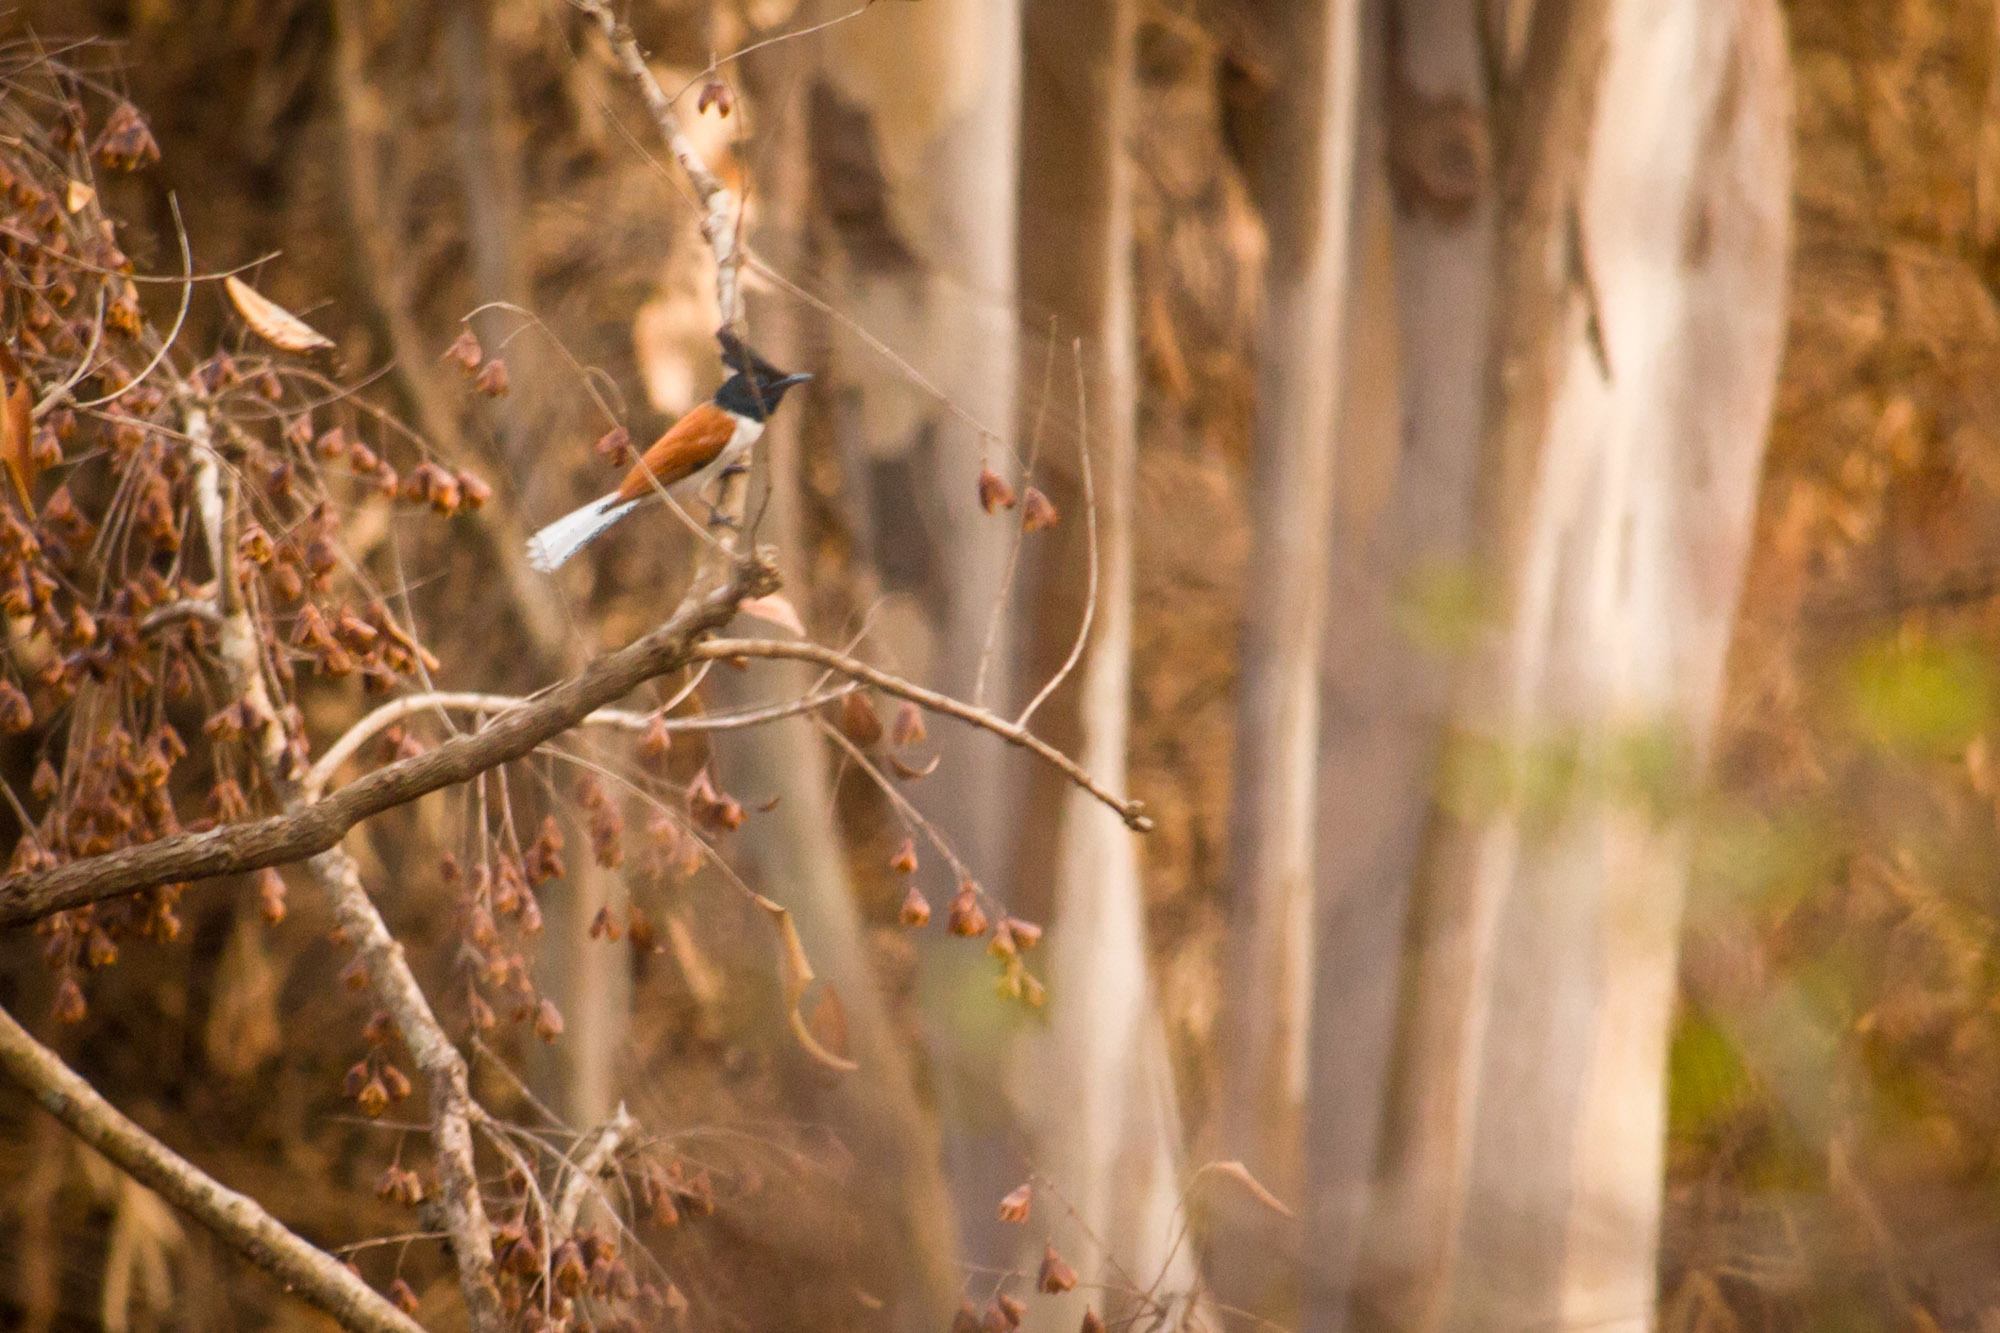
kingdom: Animalia
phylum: Chordata
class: Aves
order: Passeriformes
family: Monarchidae
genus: Terpsiphone
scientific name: Terpsiphone paradisi
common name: Indian paradise flycatcher
